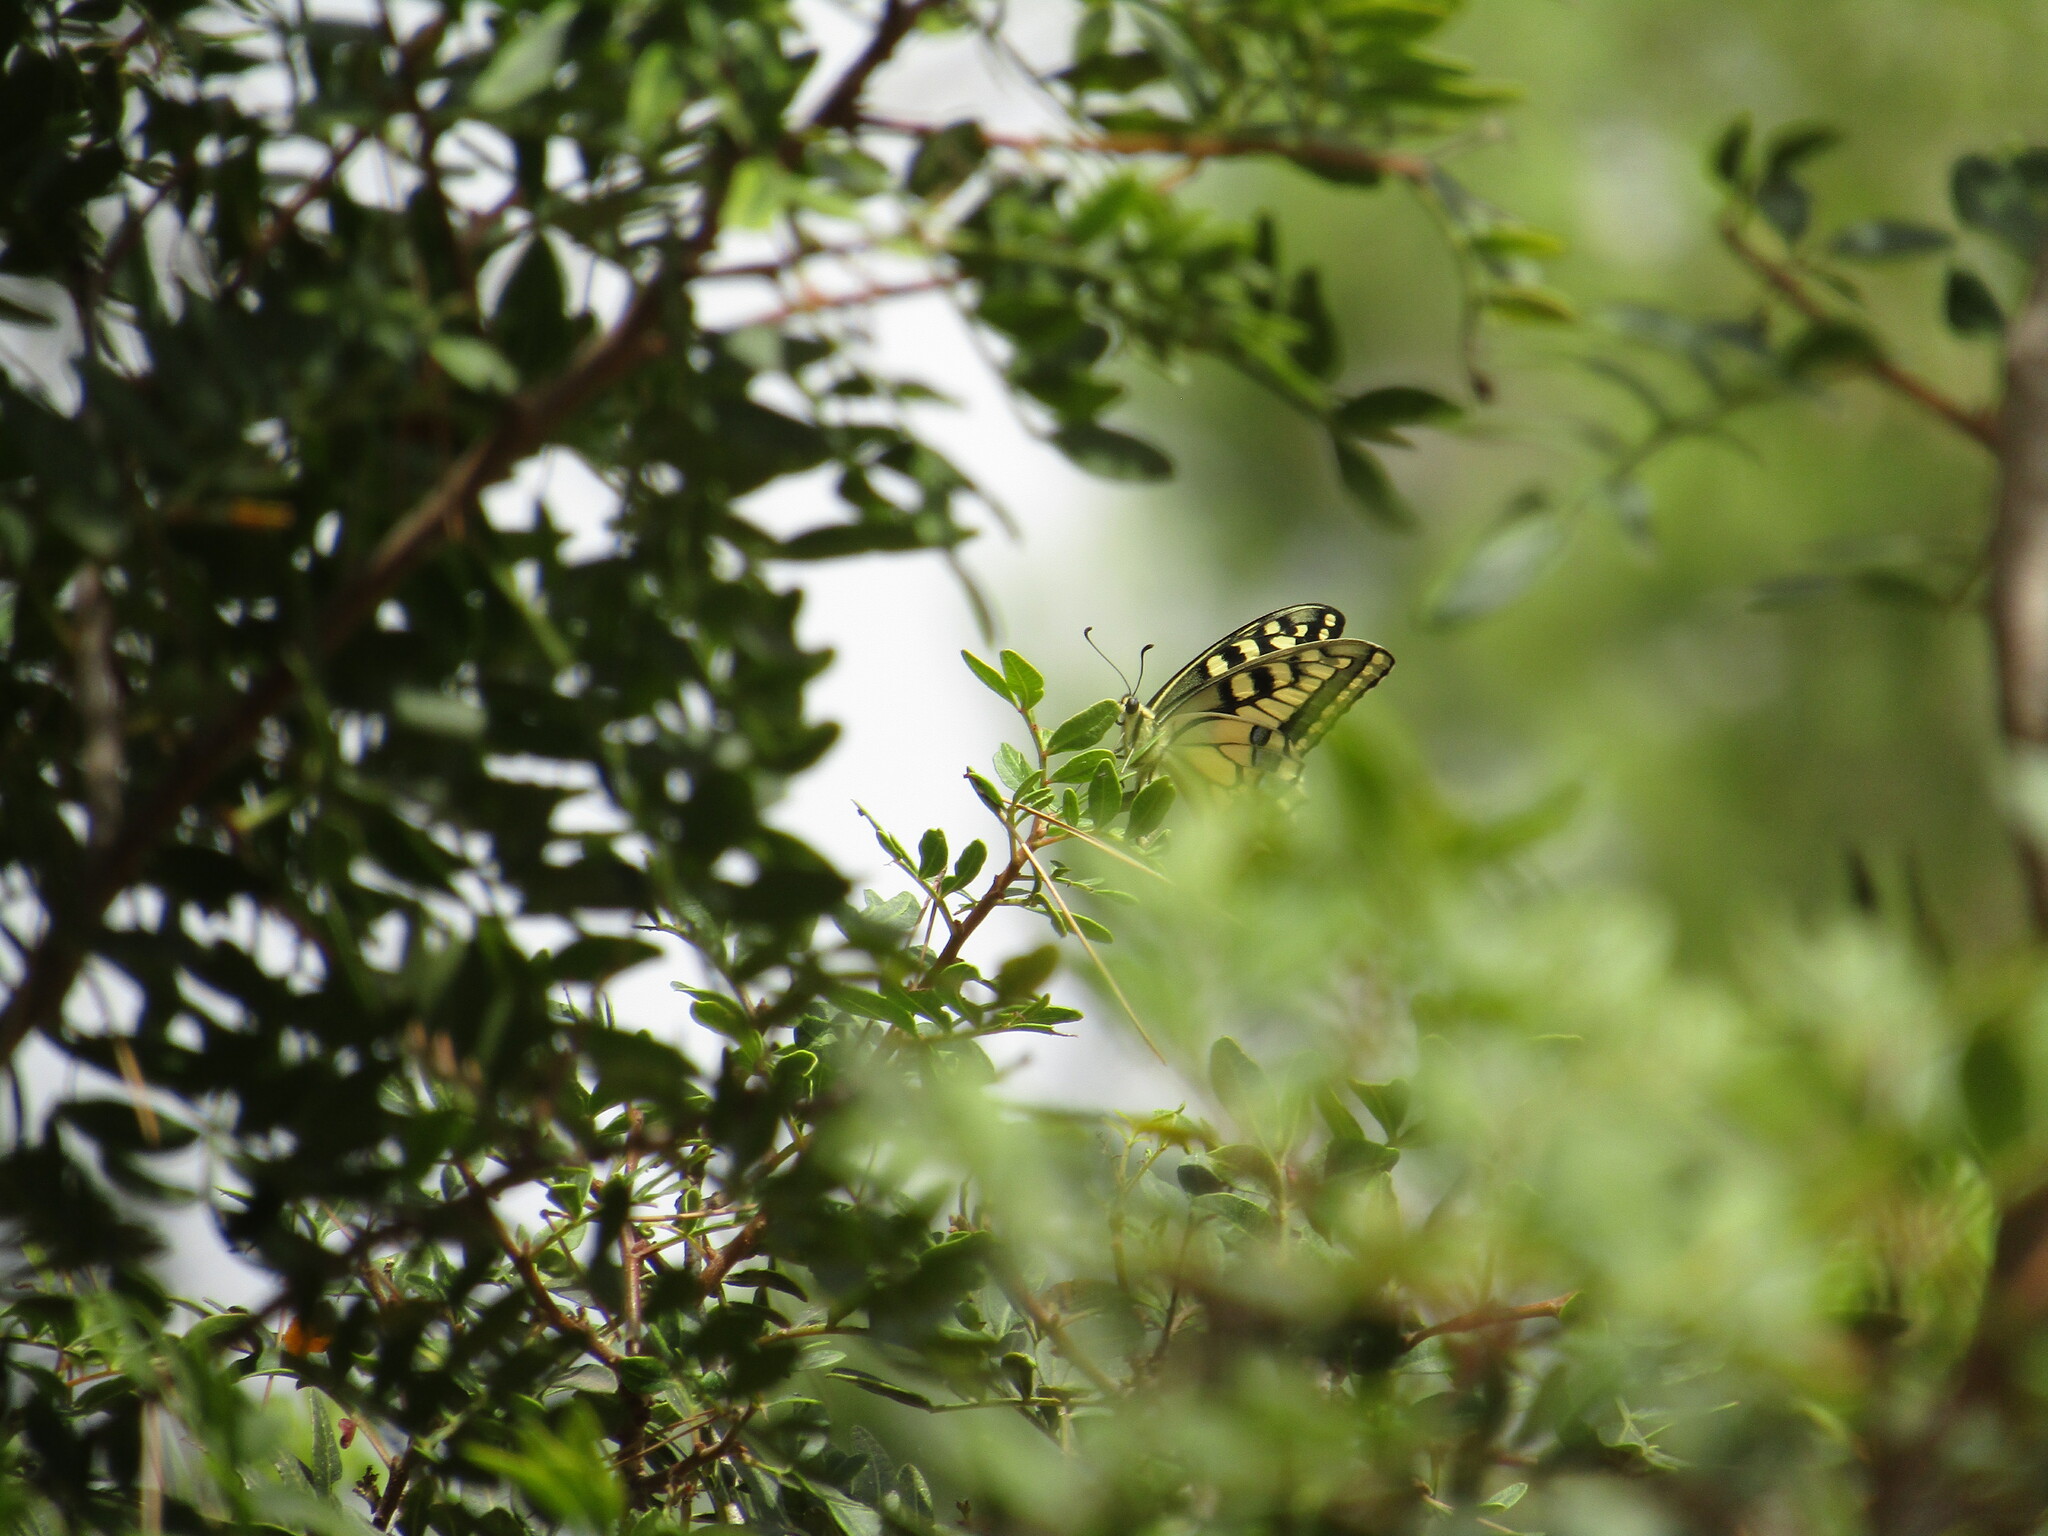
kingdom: Animalia
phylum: Arthropoda
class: Insecta
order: Lepidoptera
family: Papilionidae
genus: Papilio
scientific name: Papilio machaon
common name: Swallowtail
